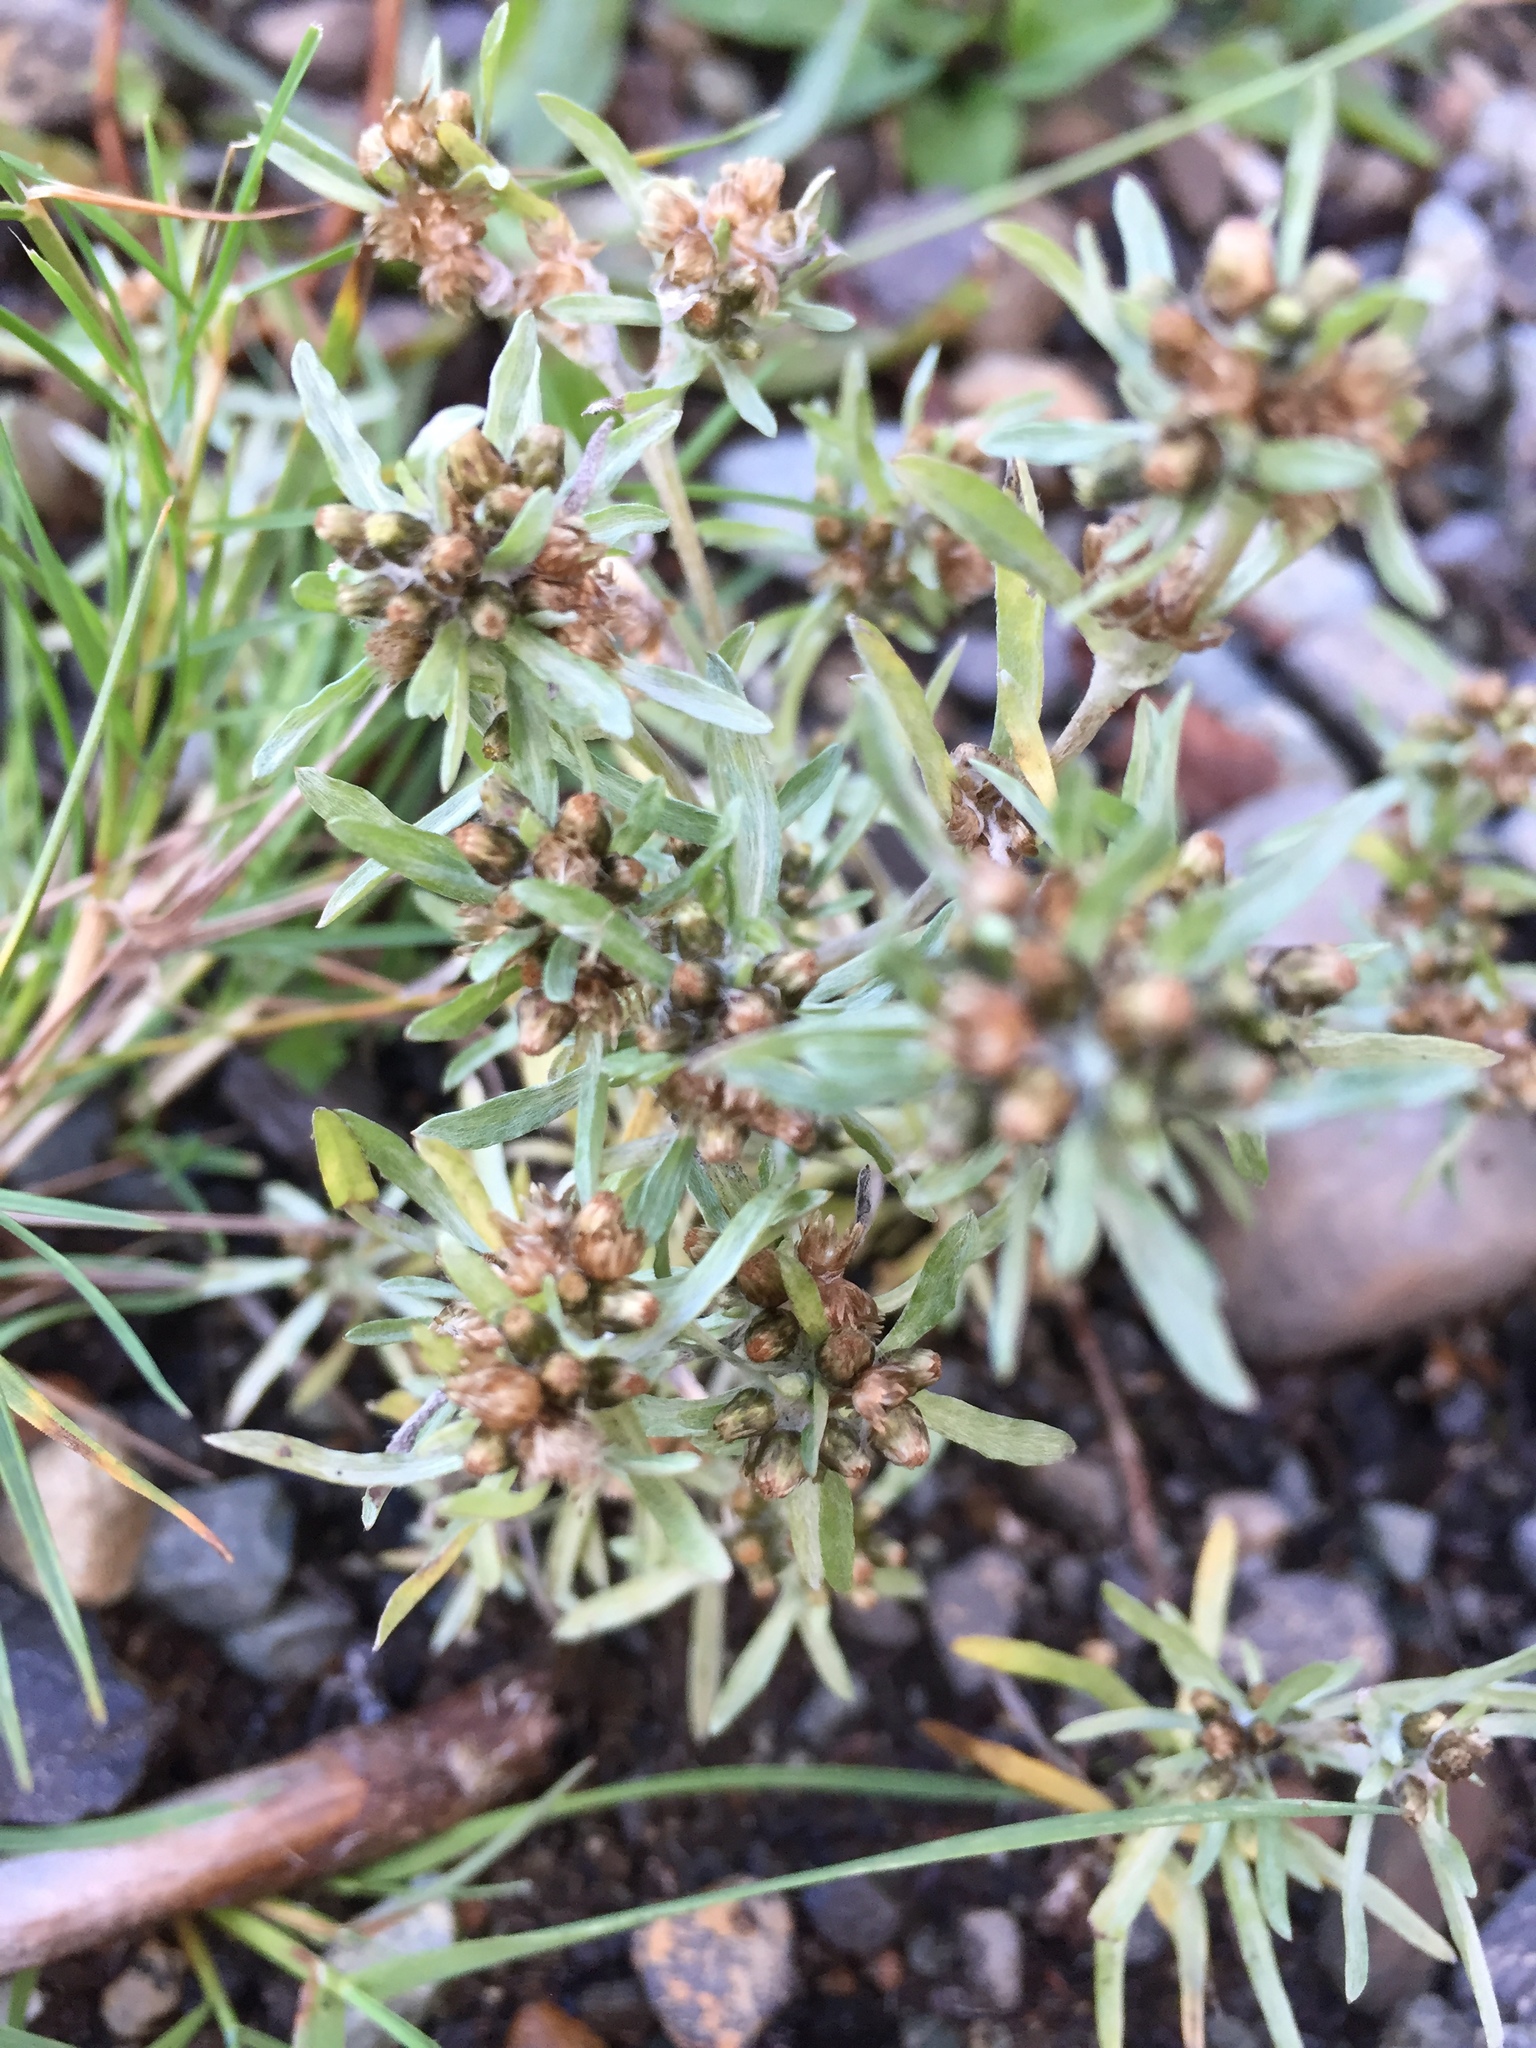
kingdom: Plantae
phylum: Tracheophyta
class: Magnoliopsida
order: Asterales
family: Asteraceae
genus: Gnaphalium
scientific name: Gnaphalium uliginosum
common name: Marsh cudweed
